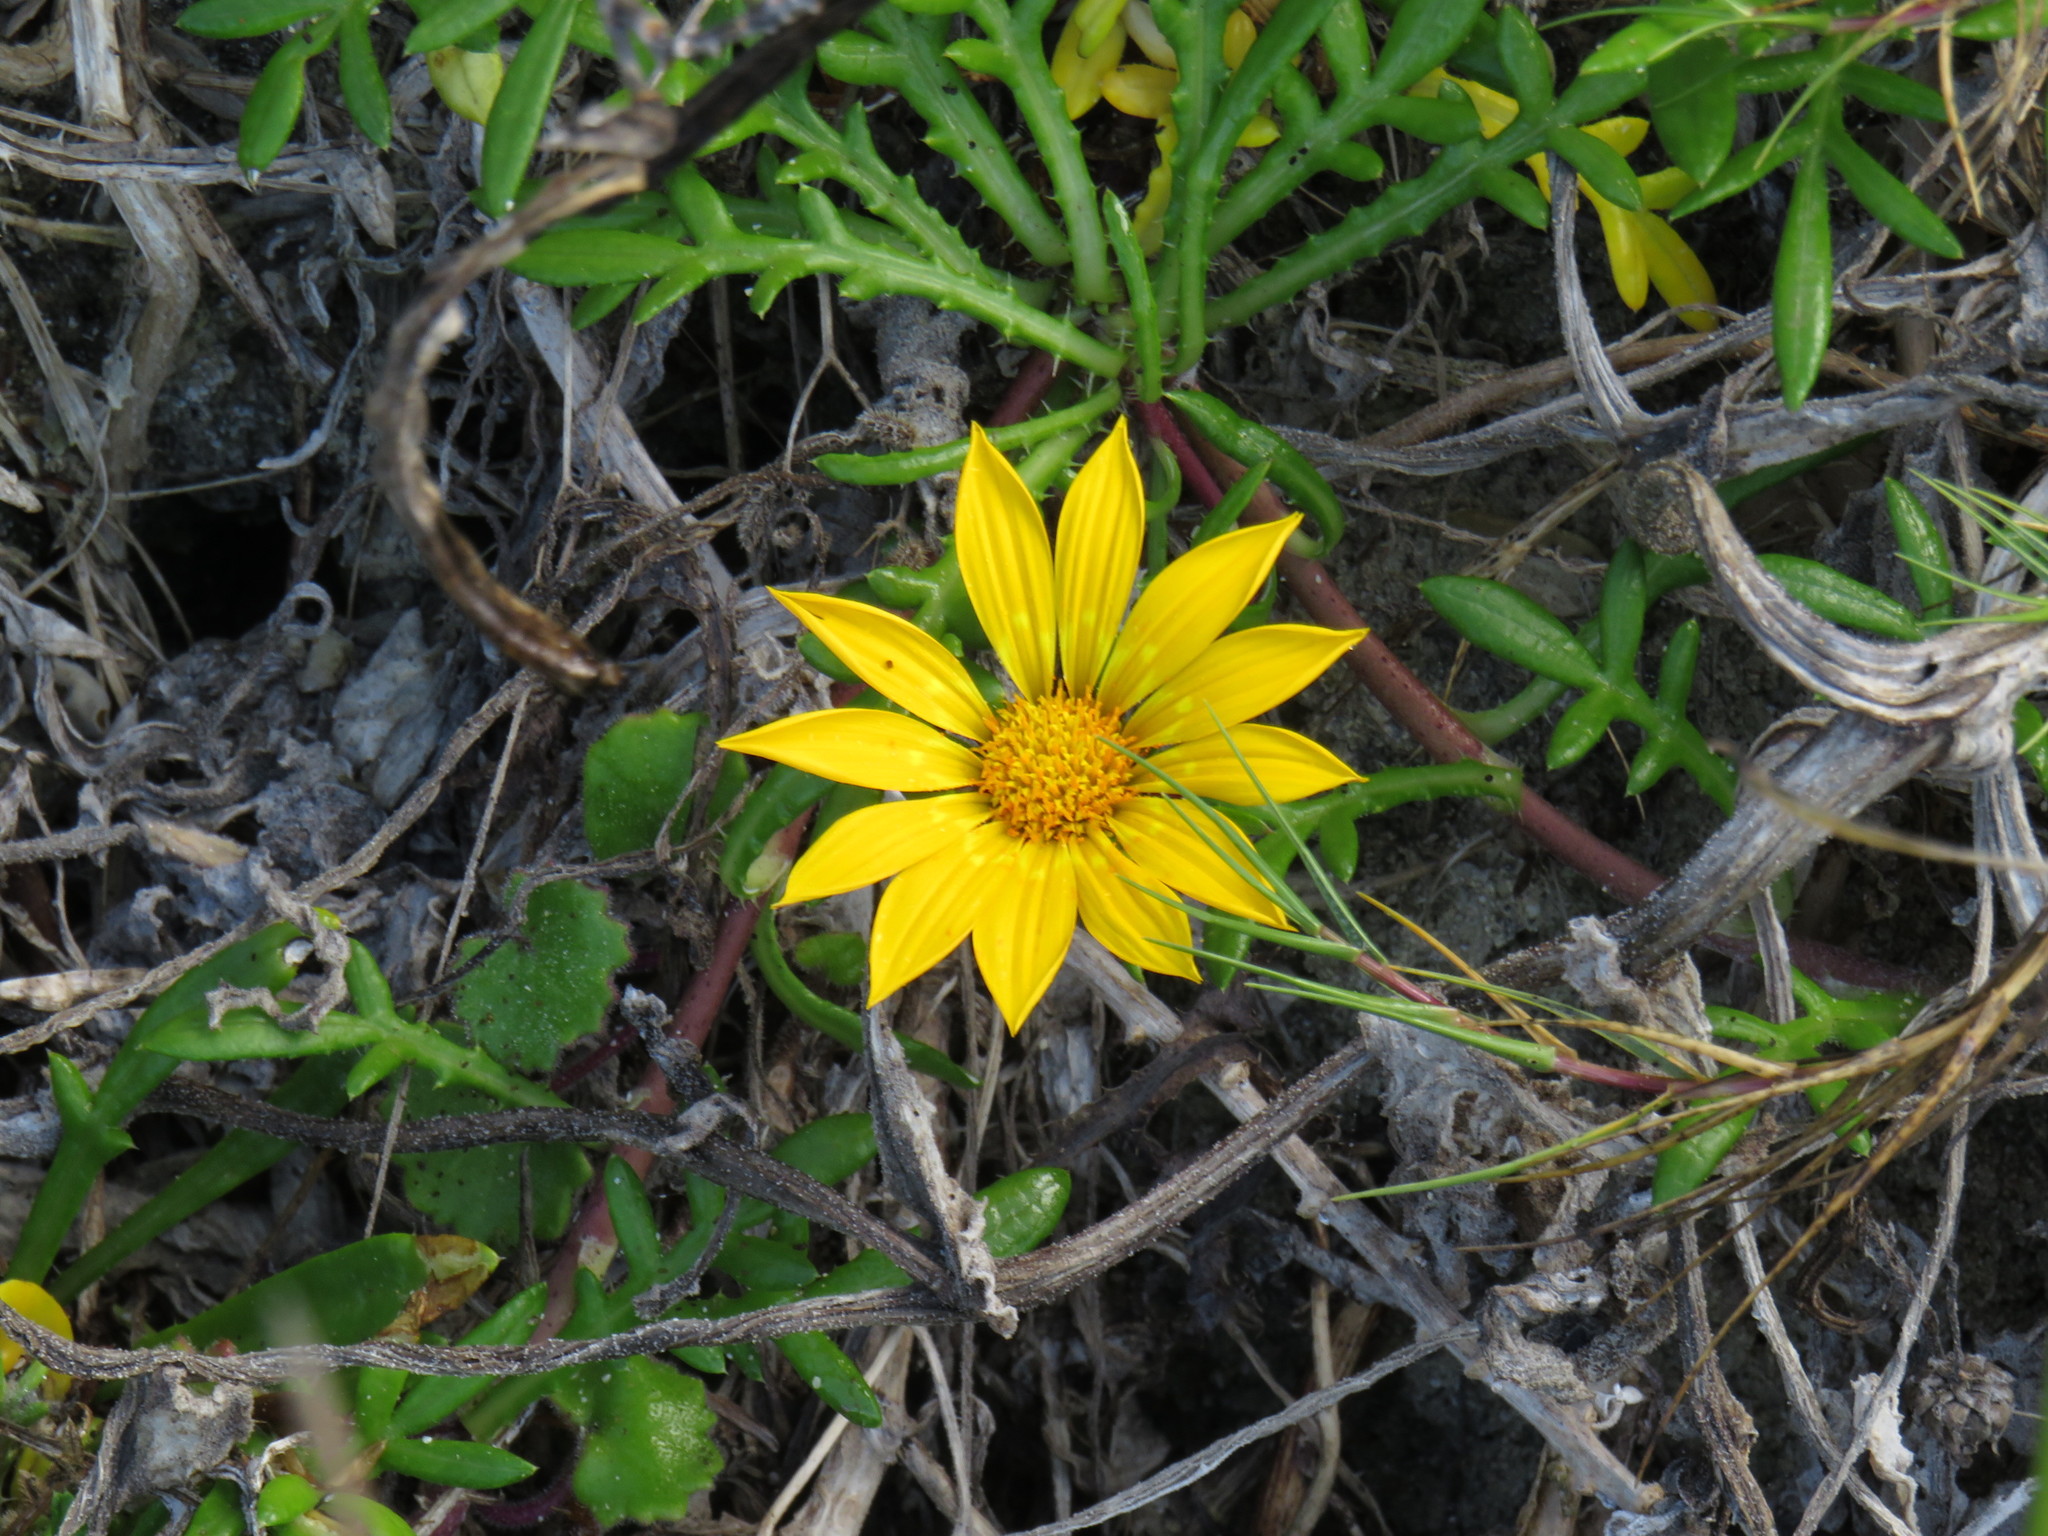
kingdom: Plantae
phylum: Tracheophyta
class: Magnoliopsida
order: Asterales
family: Asteraceae
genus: Gazania
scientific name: Gazania maritima
